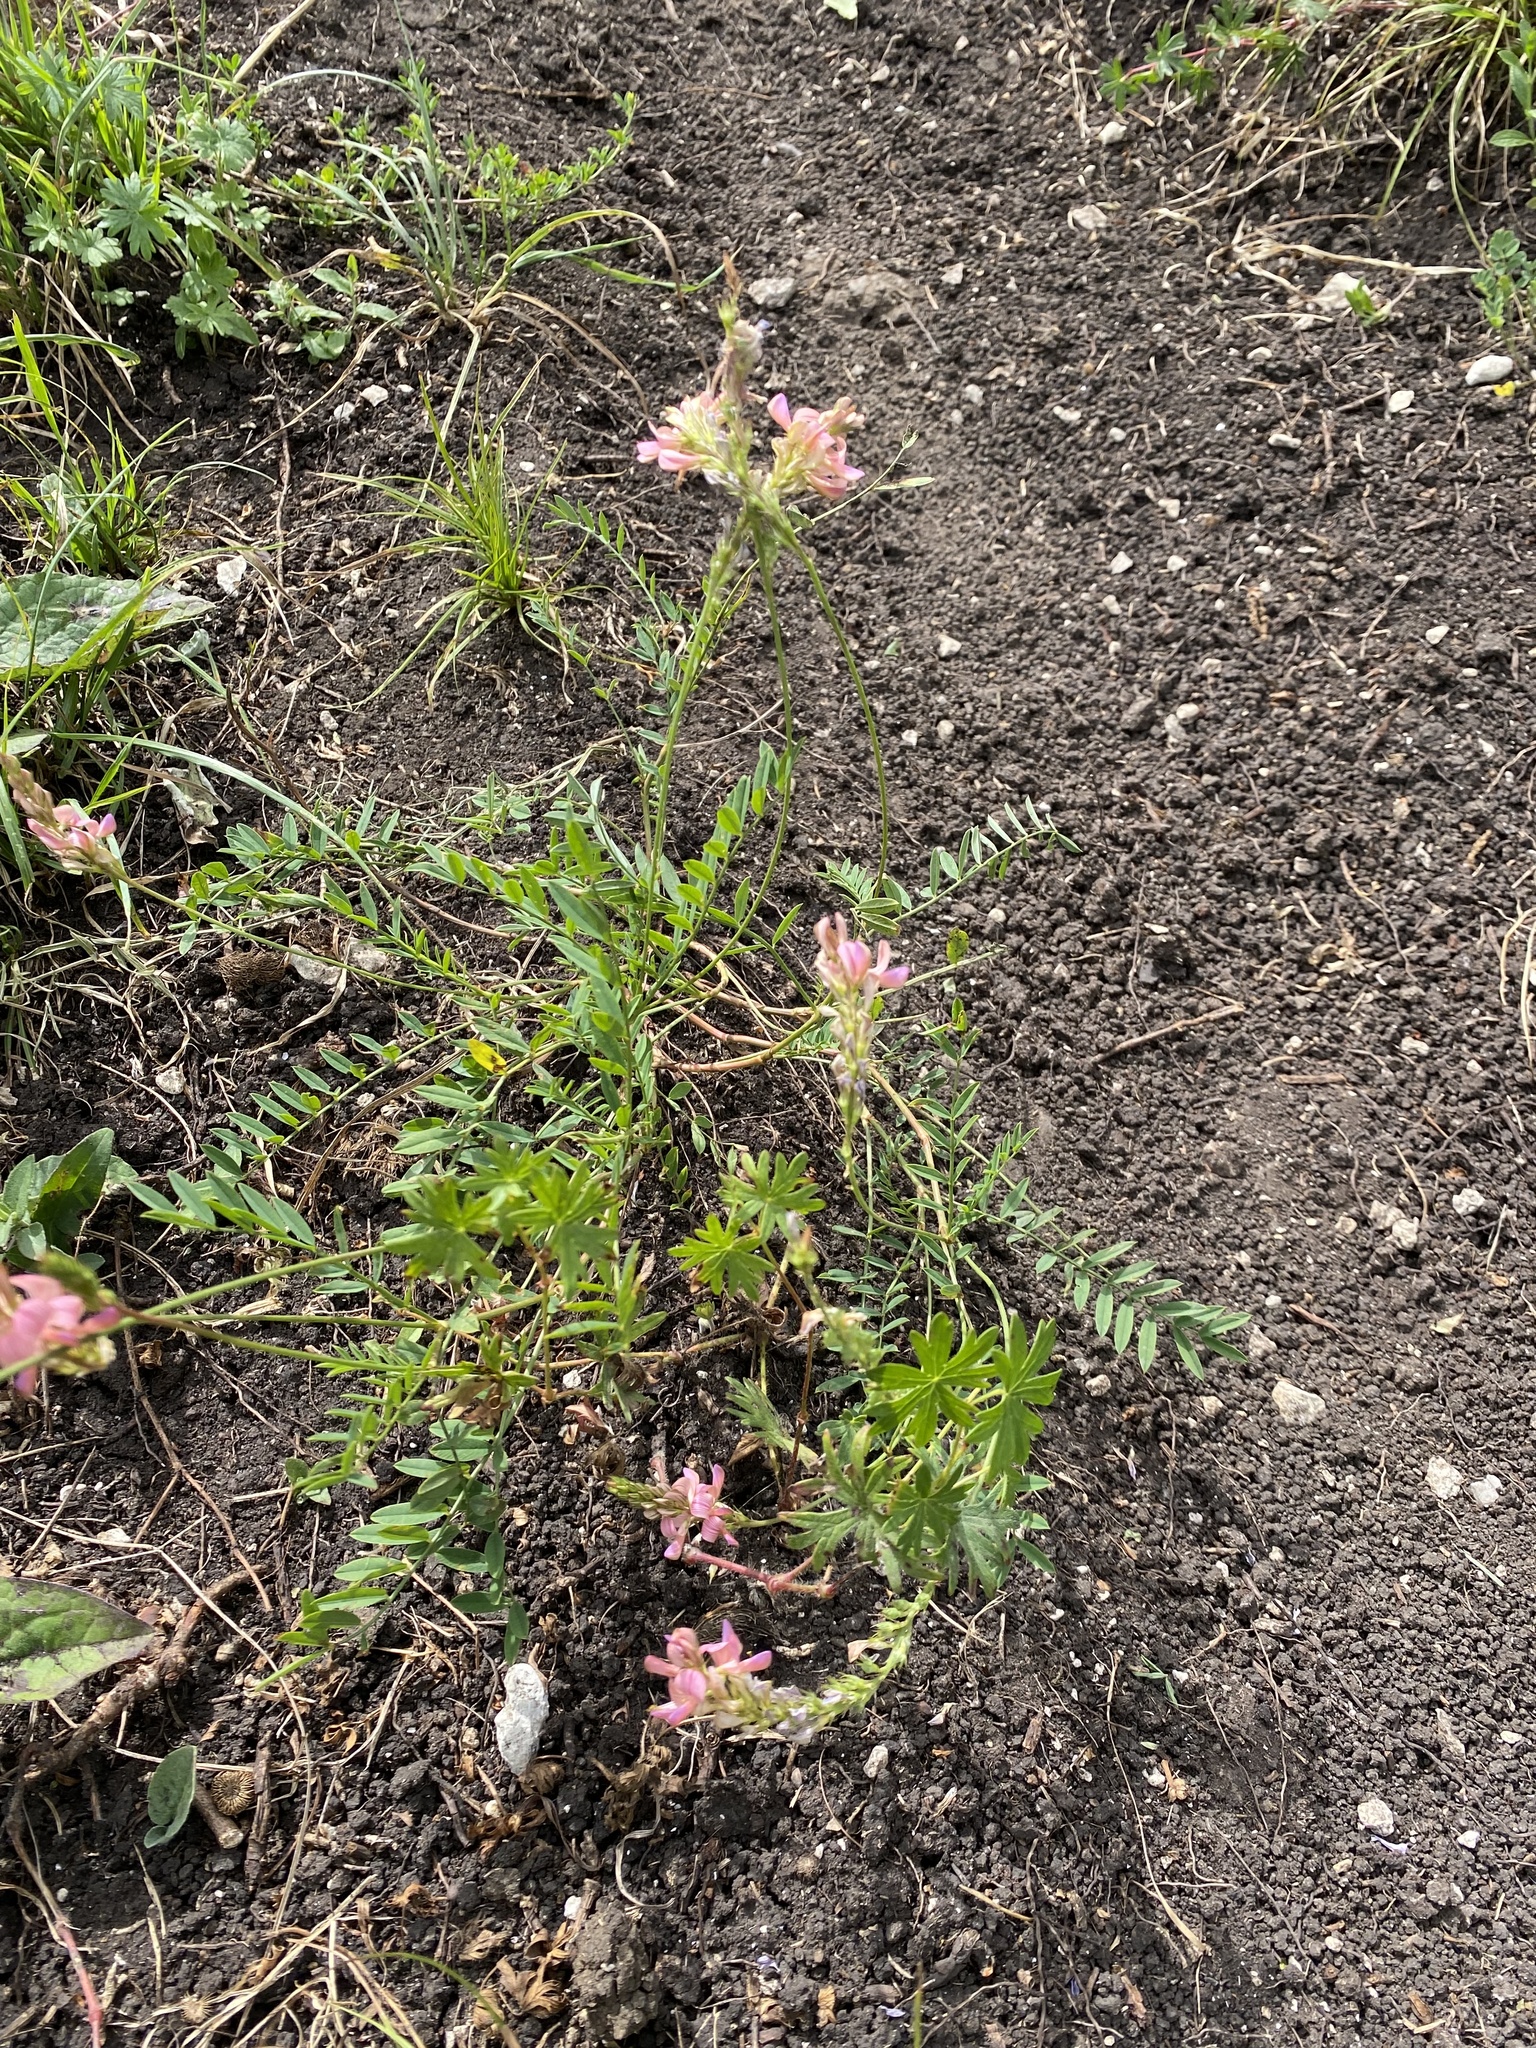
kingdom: Plantae
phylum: Tracheophyta
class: Magnoliopsida
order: Fabales
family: Fabaceae
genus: Onobrychis
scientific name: Onobrychis viciifolia
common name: Sainfoin
